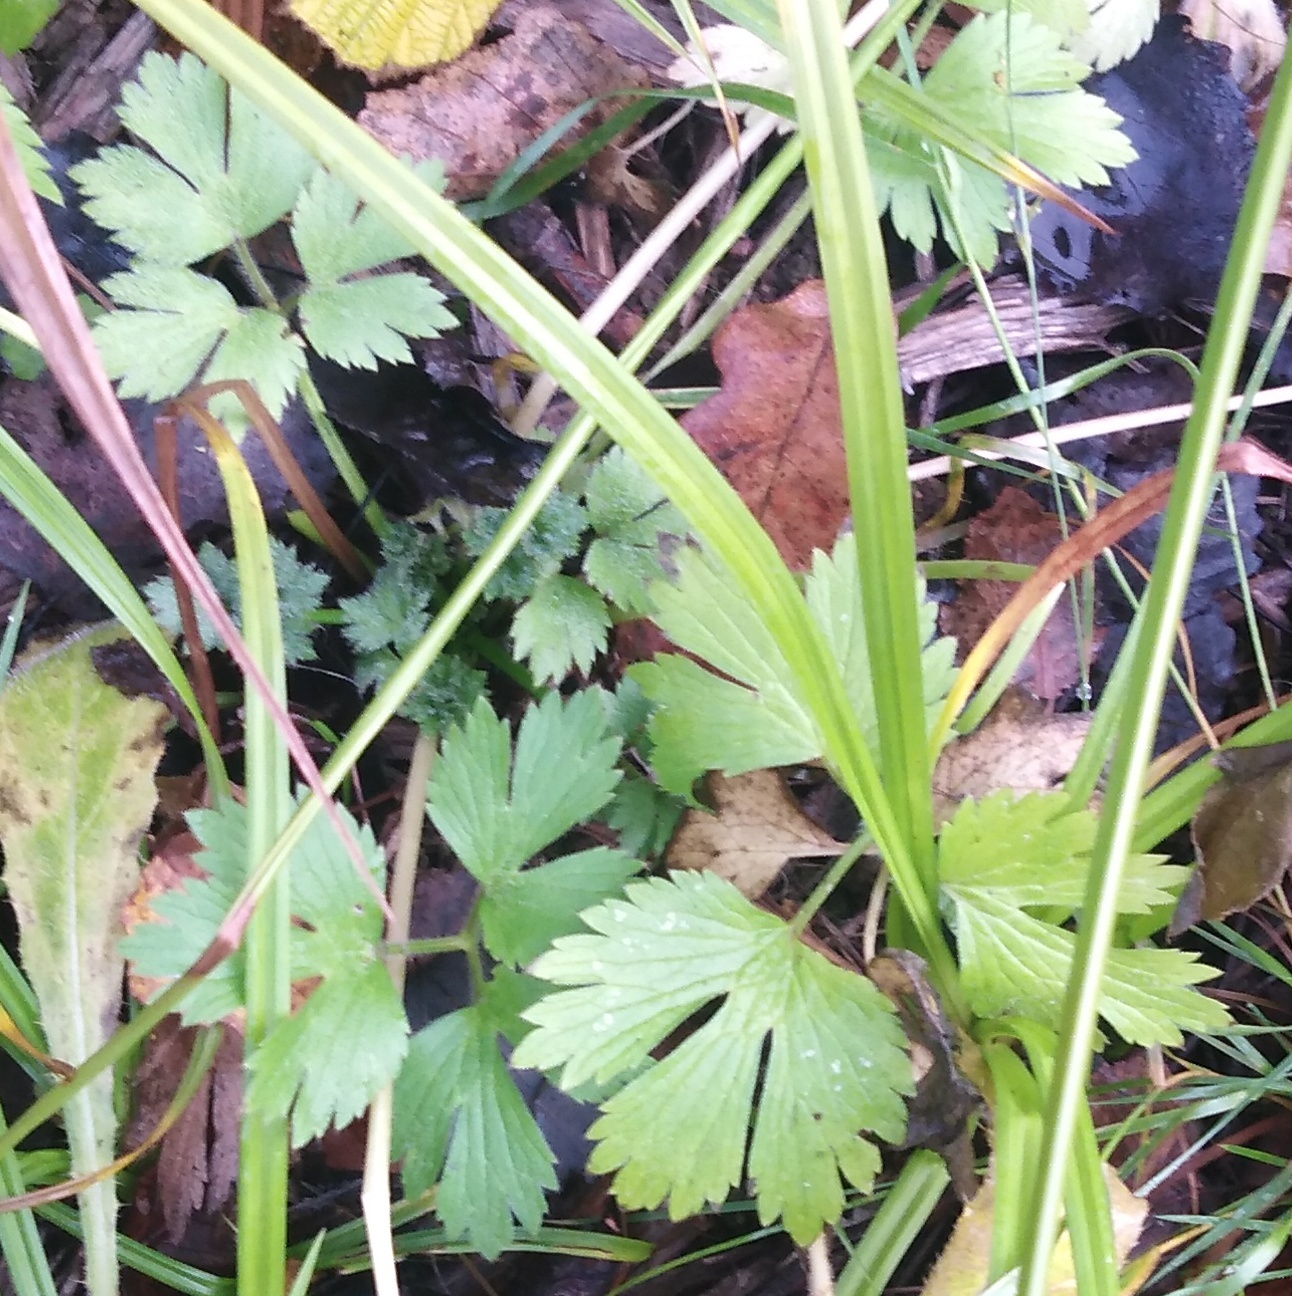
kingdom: Plantae
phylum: Tracheophyta
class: Magnoliopsida
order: Ranunculales
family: Ranunculaceae
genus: Ranunculus
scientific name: Ranunculus repens
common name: Creeping buttercup
